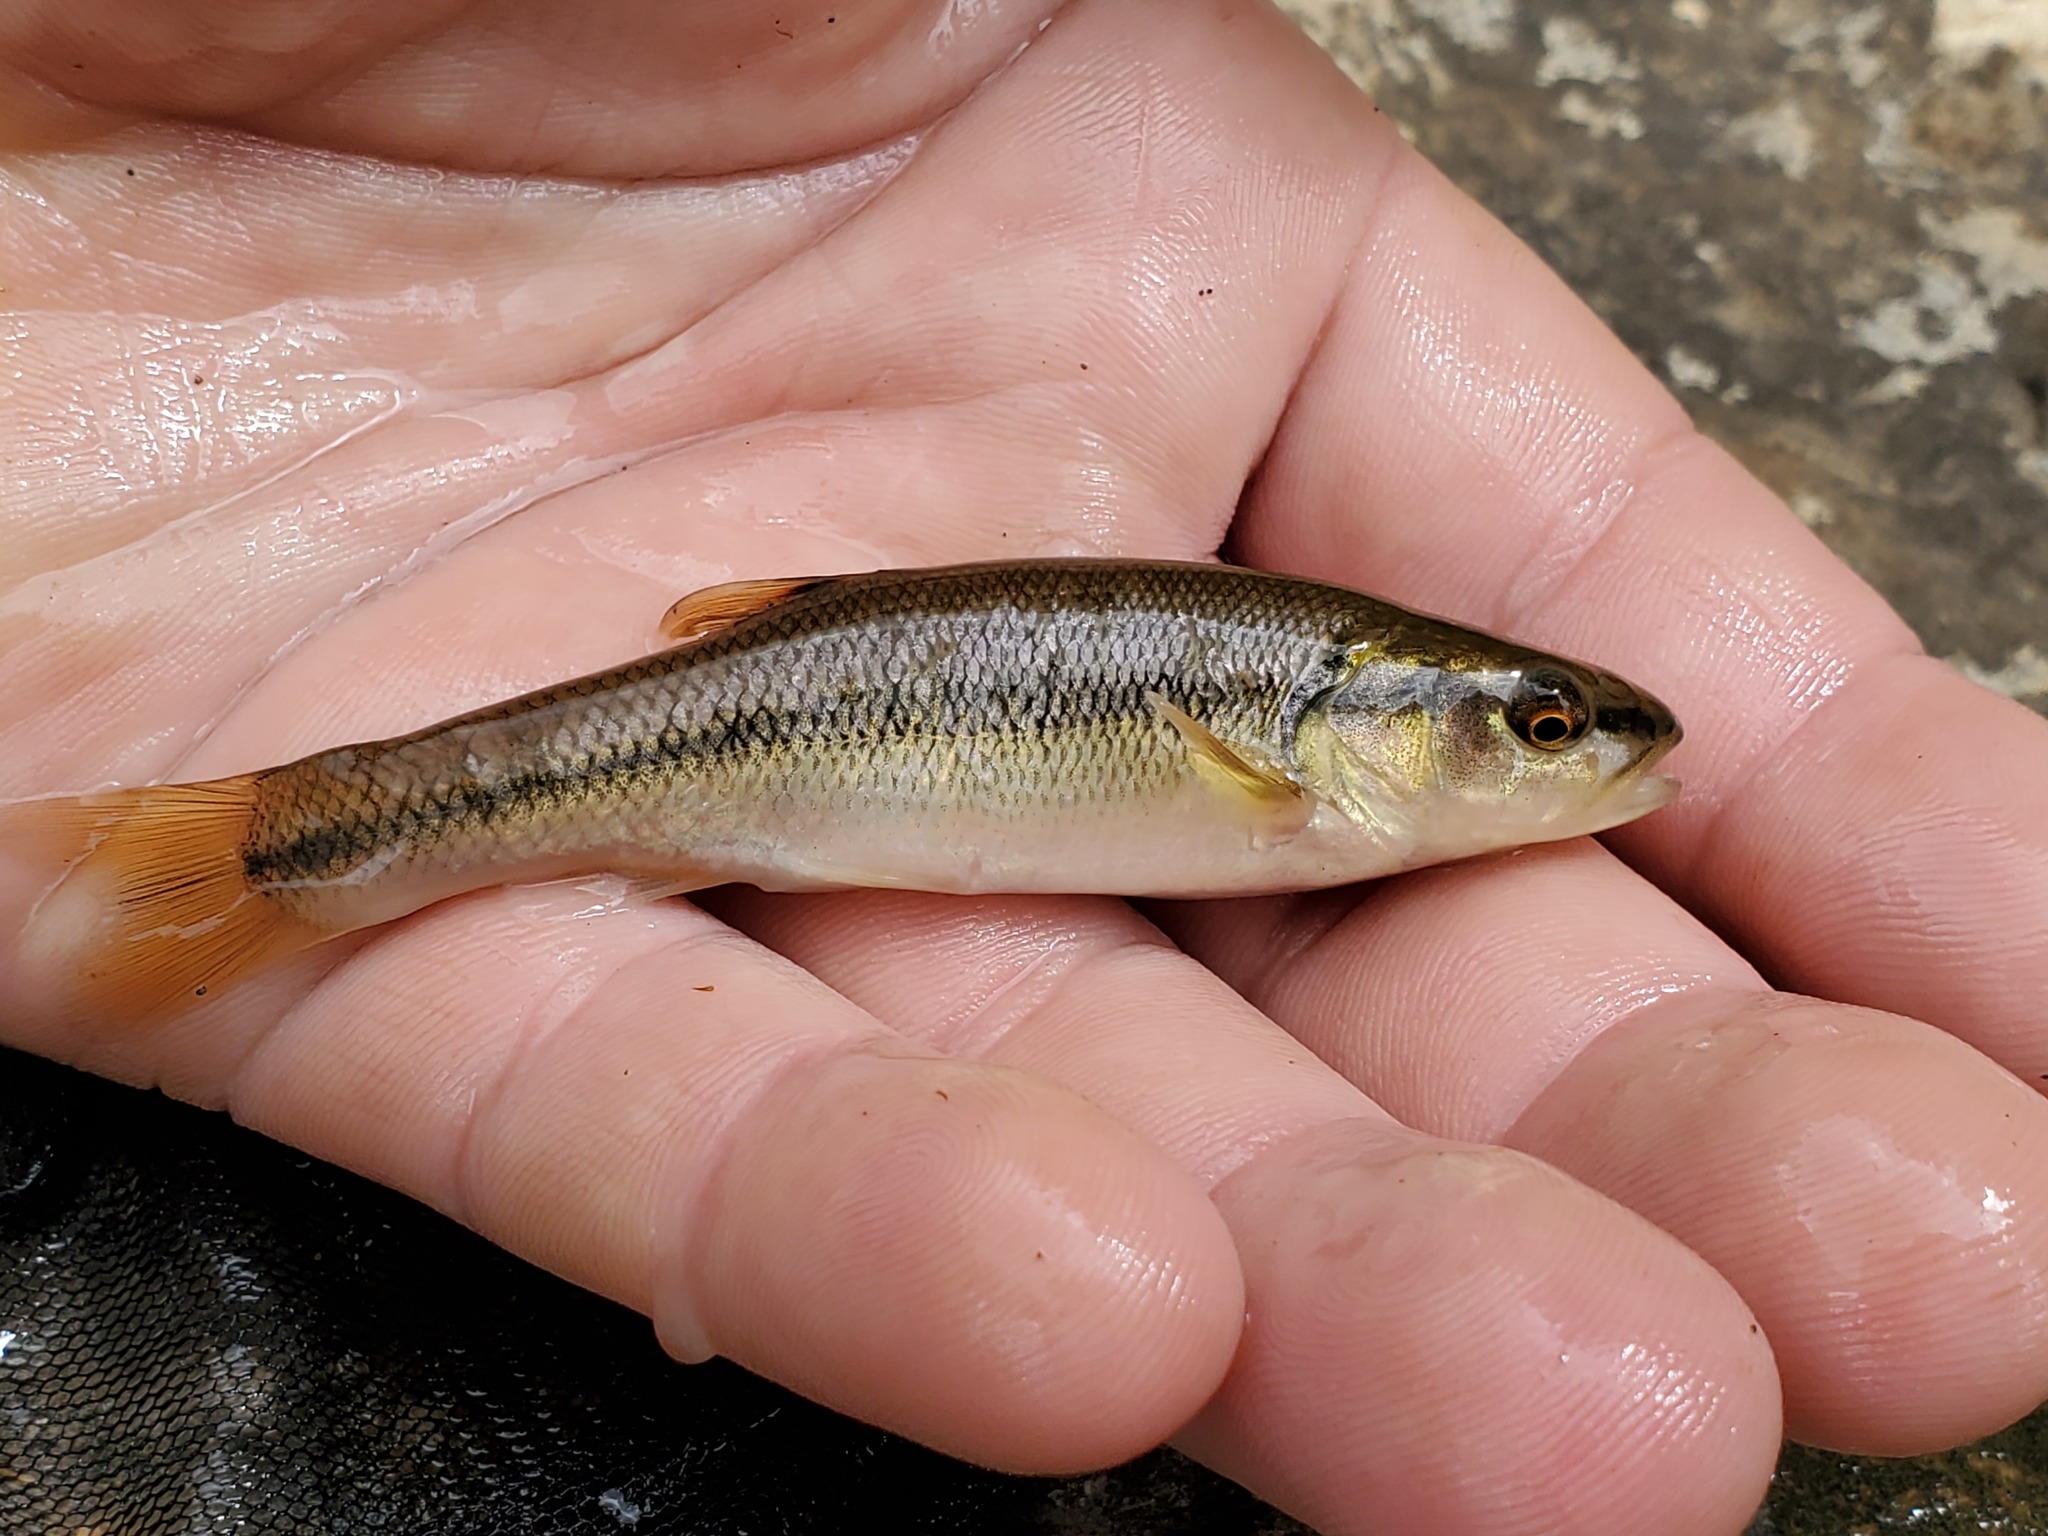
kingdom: Animalia
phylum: Chordata
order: Cypriniformes
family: Cyprinidae
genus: Semotilus
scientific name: Semotilus atromaculatus
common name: Creek chub
